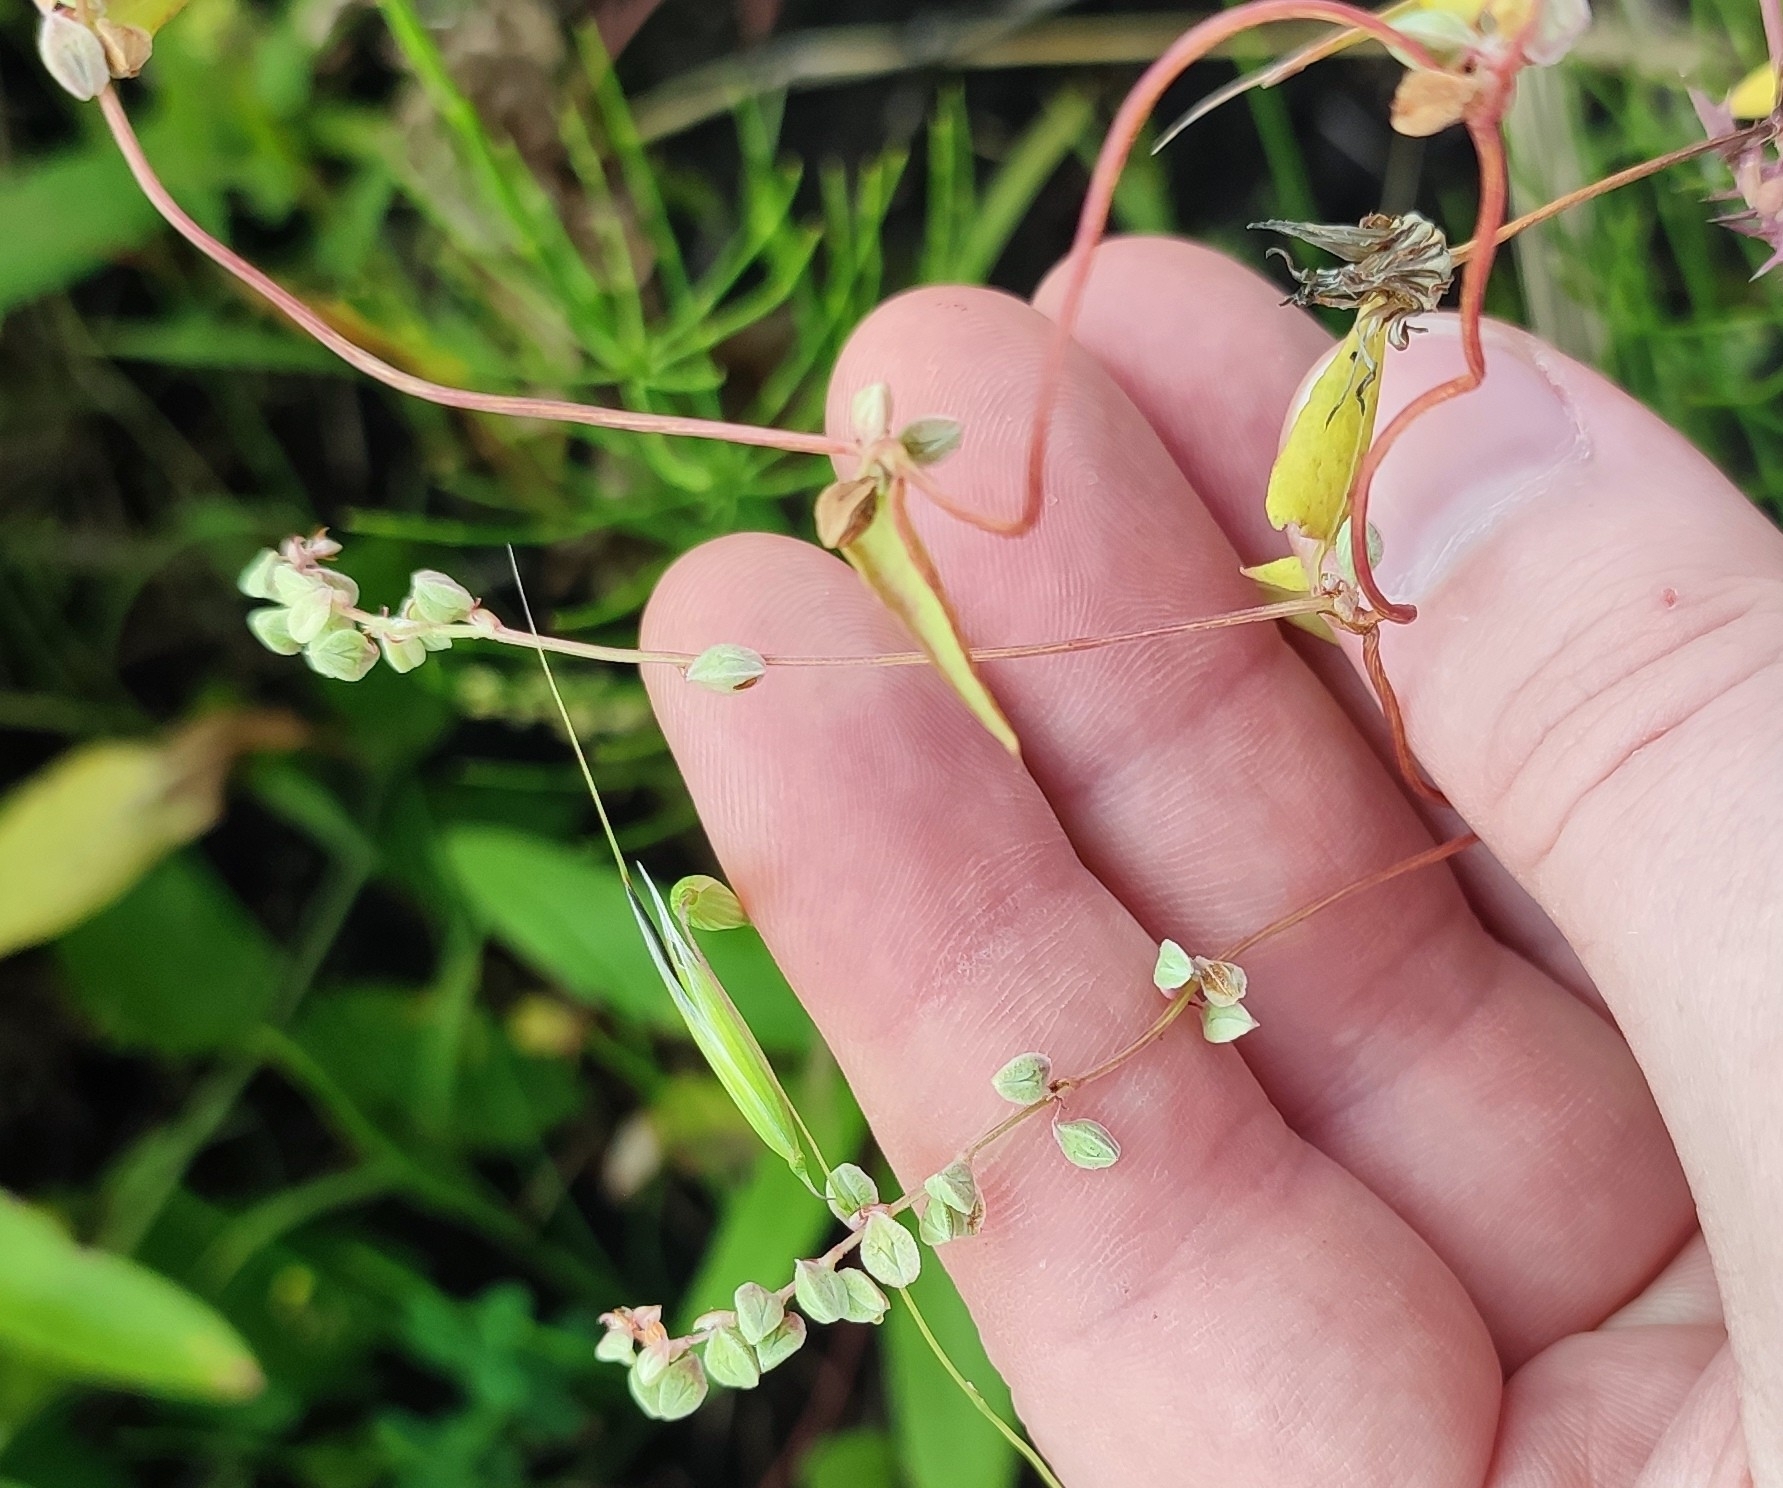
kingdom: Plantae
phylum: Tracheophyta
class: Magnoliopsida
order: Caryophyllales
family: Polygonaceae
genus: Fallopia
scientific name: Fallopia convolvulus
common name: Black bindweed
